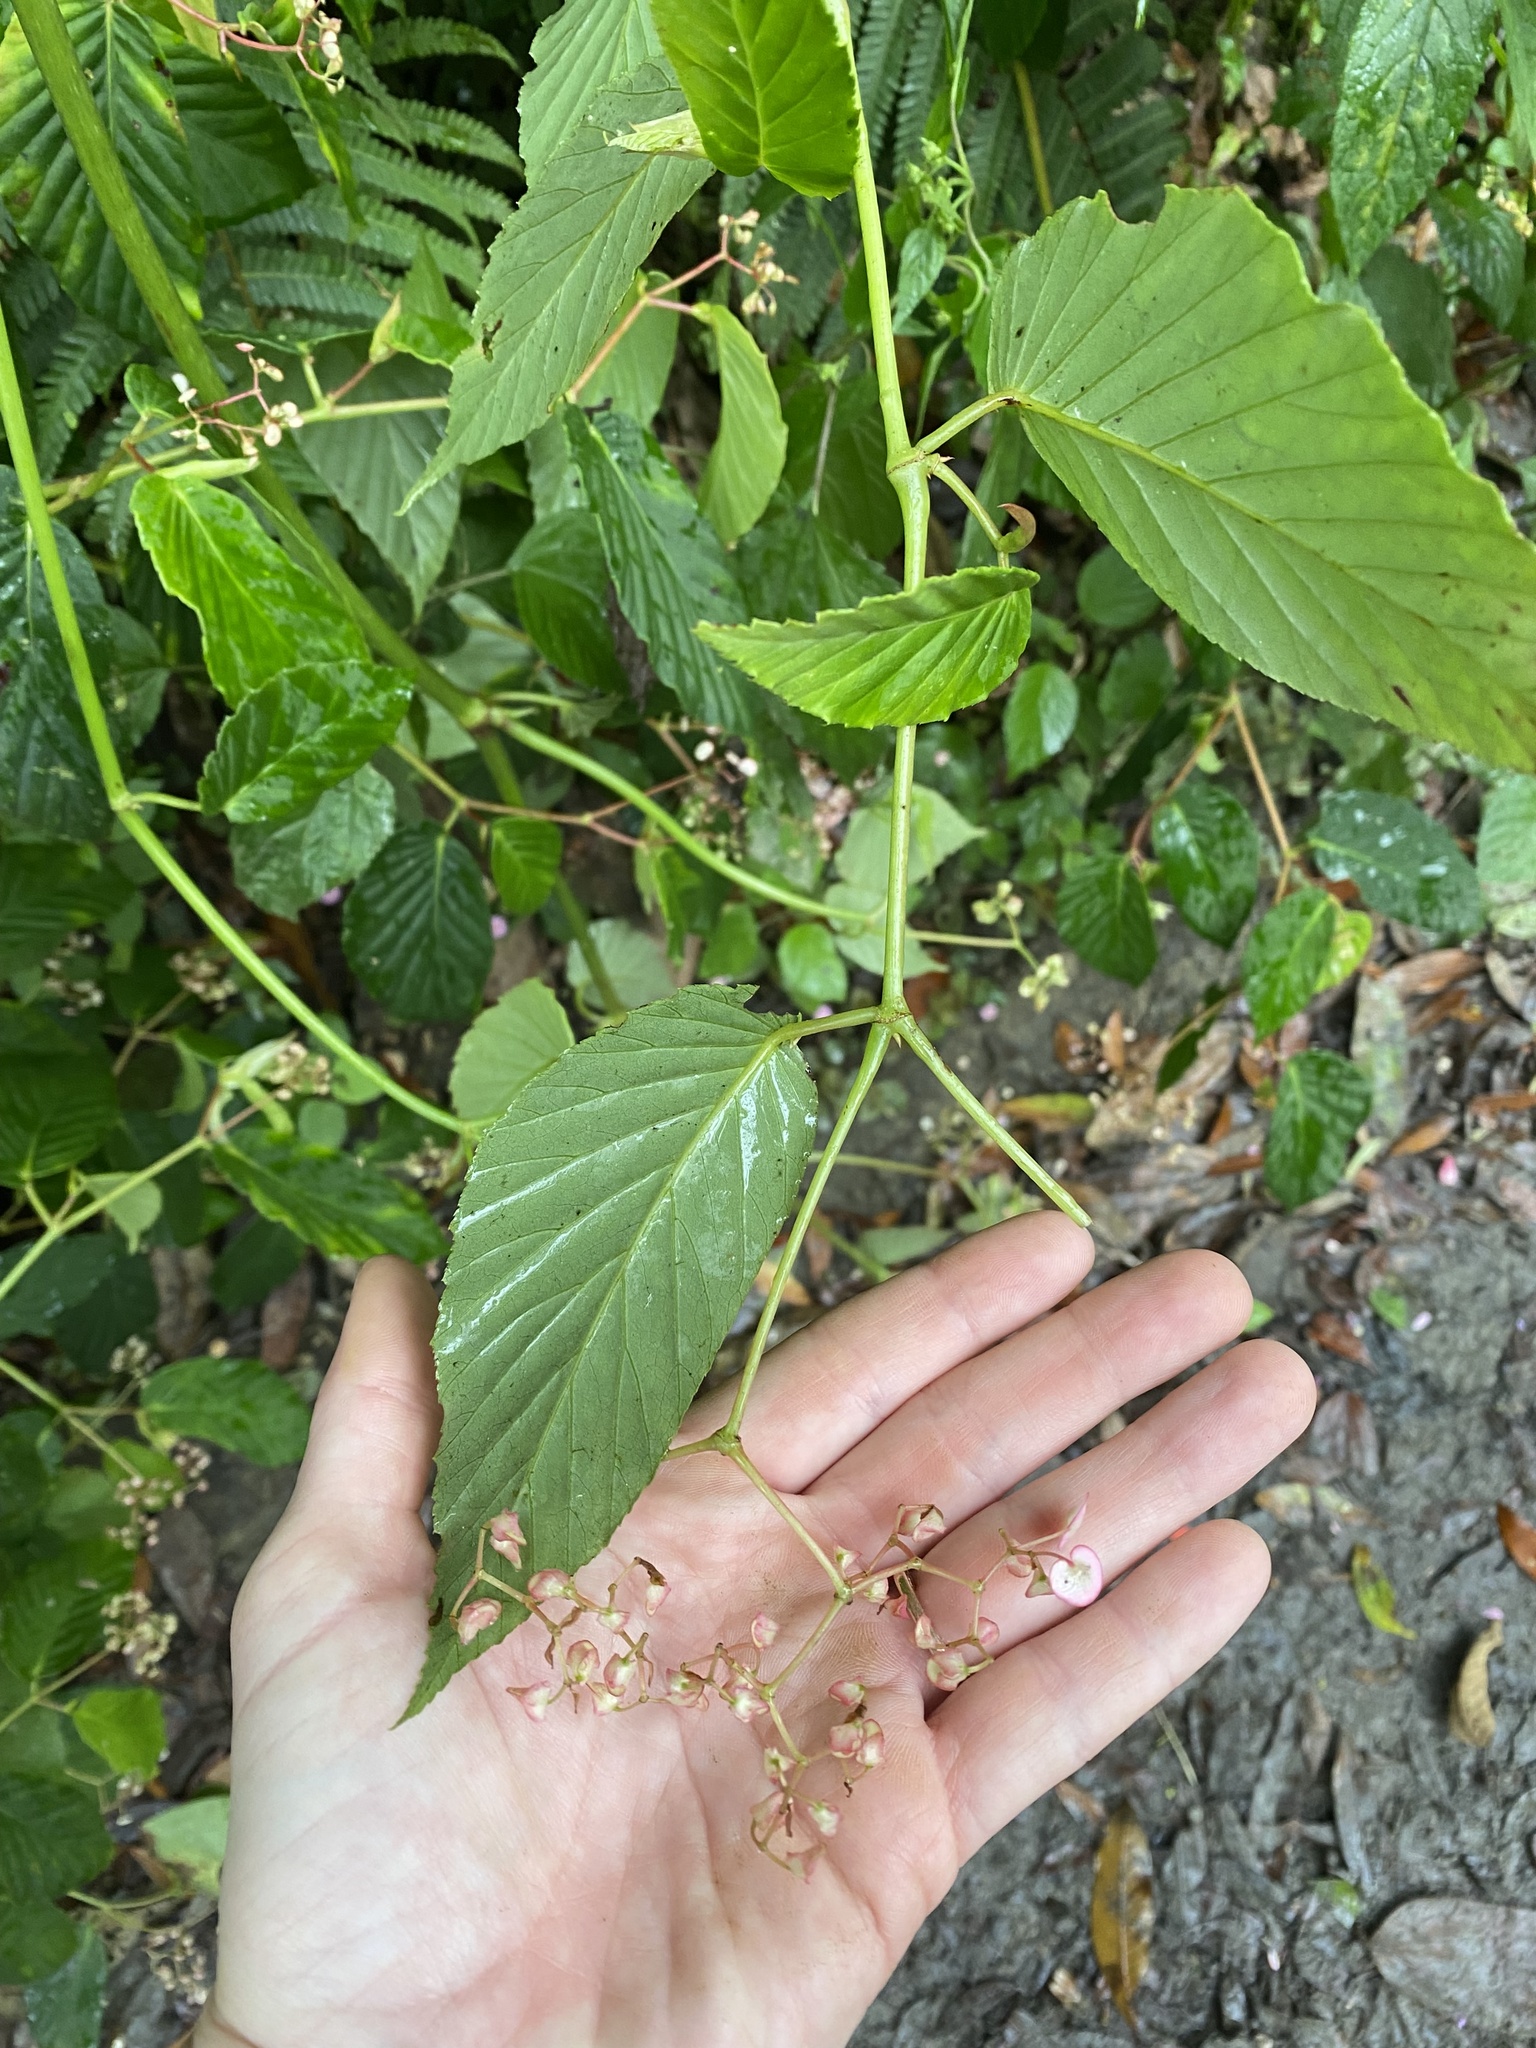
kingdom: Plantae
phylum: Tracheophyta
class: Magnoliopsida
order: Cucurbitales
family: Begoniaceae
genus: Begonia
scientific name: Begonia convallariodora
